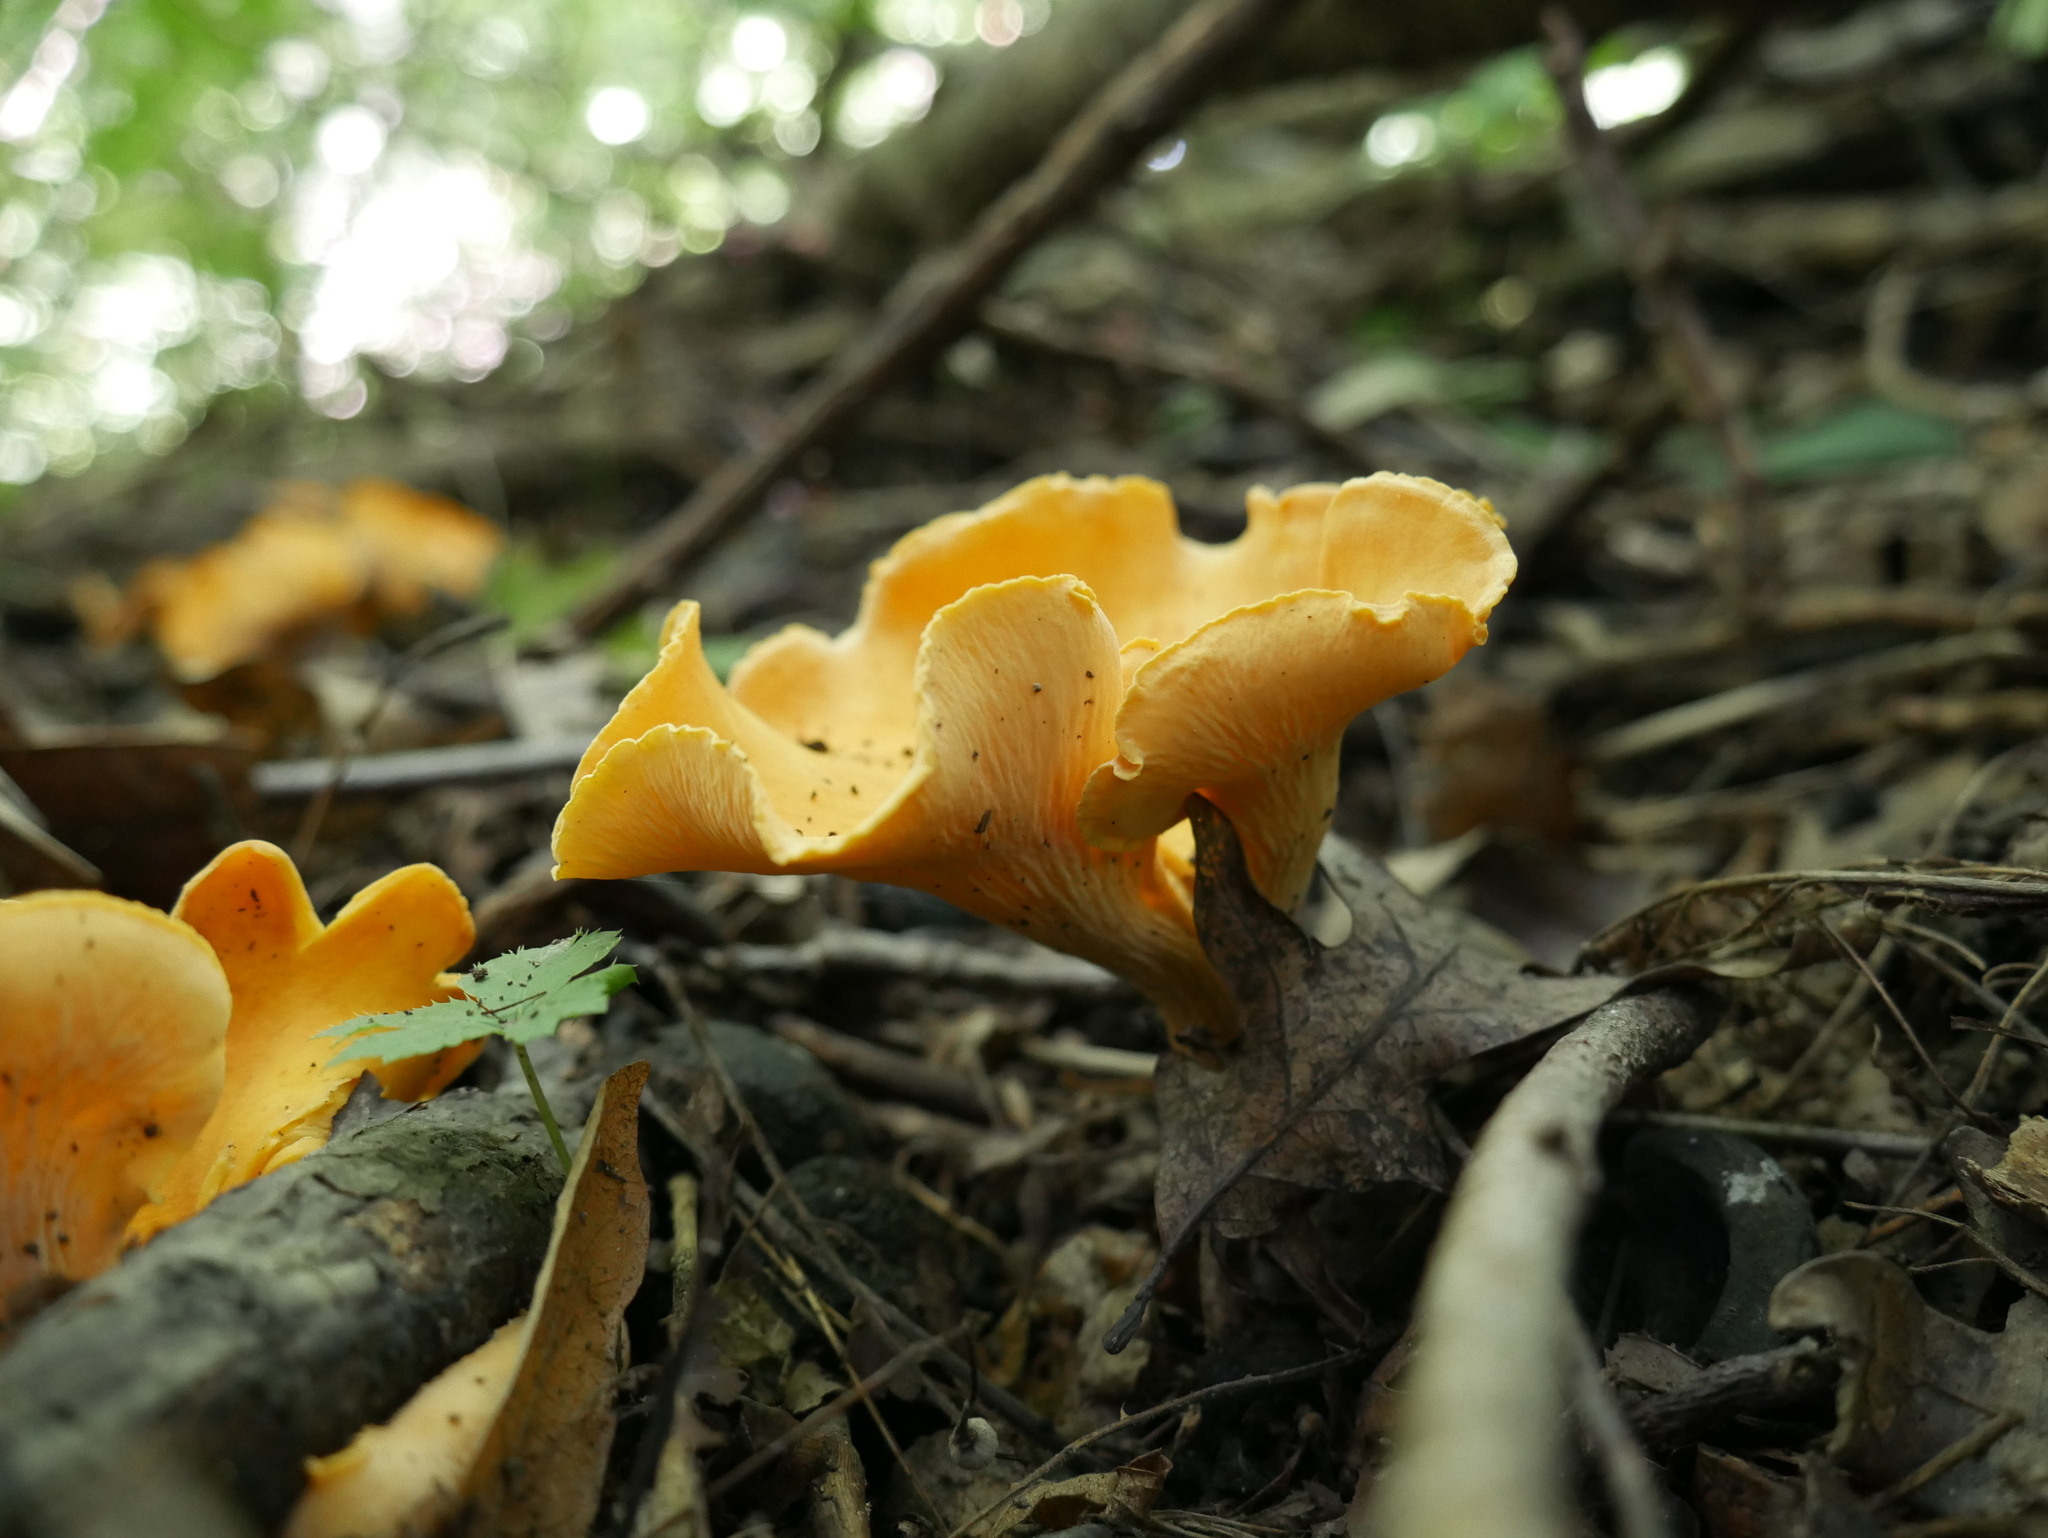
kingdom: Fungi
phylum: Basidiomycota
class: Agaricomycetes
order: Cantharellales
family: Hydnaceae
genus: Cantharellus
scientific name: Cantharellus lateritius
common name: Smooth chanterelle
